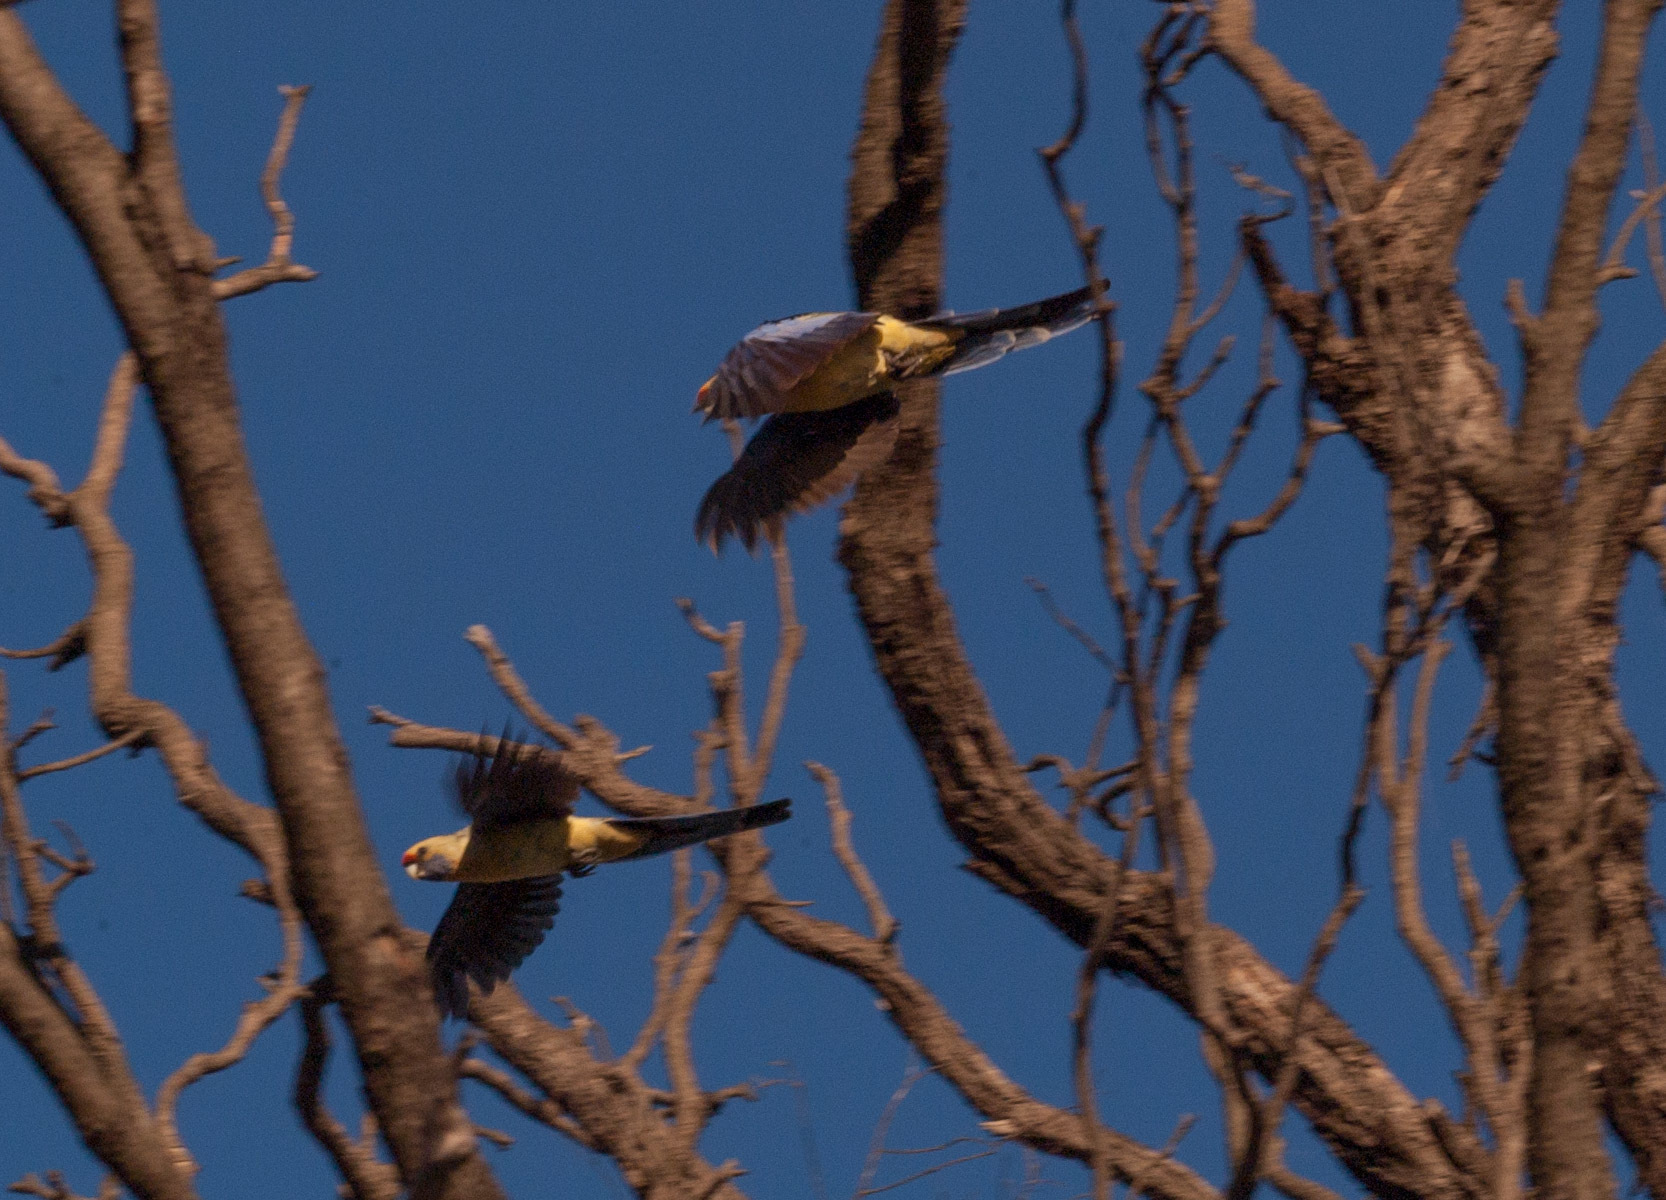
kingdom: Animalia
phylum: Chordata
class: Aves
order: Psittaciformes
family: Psittacidae
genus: Platycercus
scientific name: Platycercus elegans
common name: Crimson rosella
